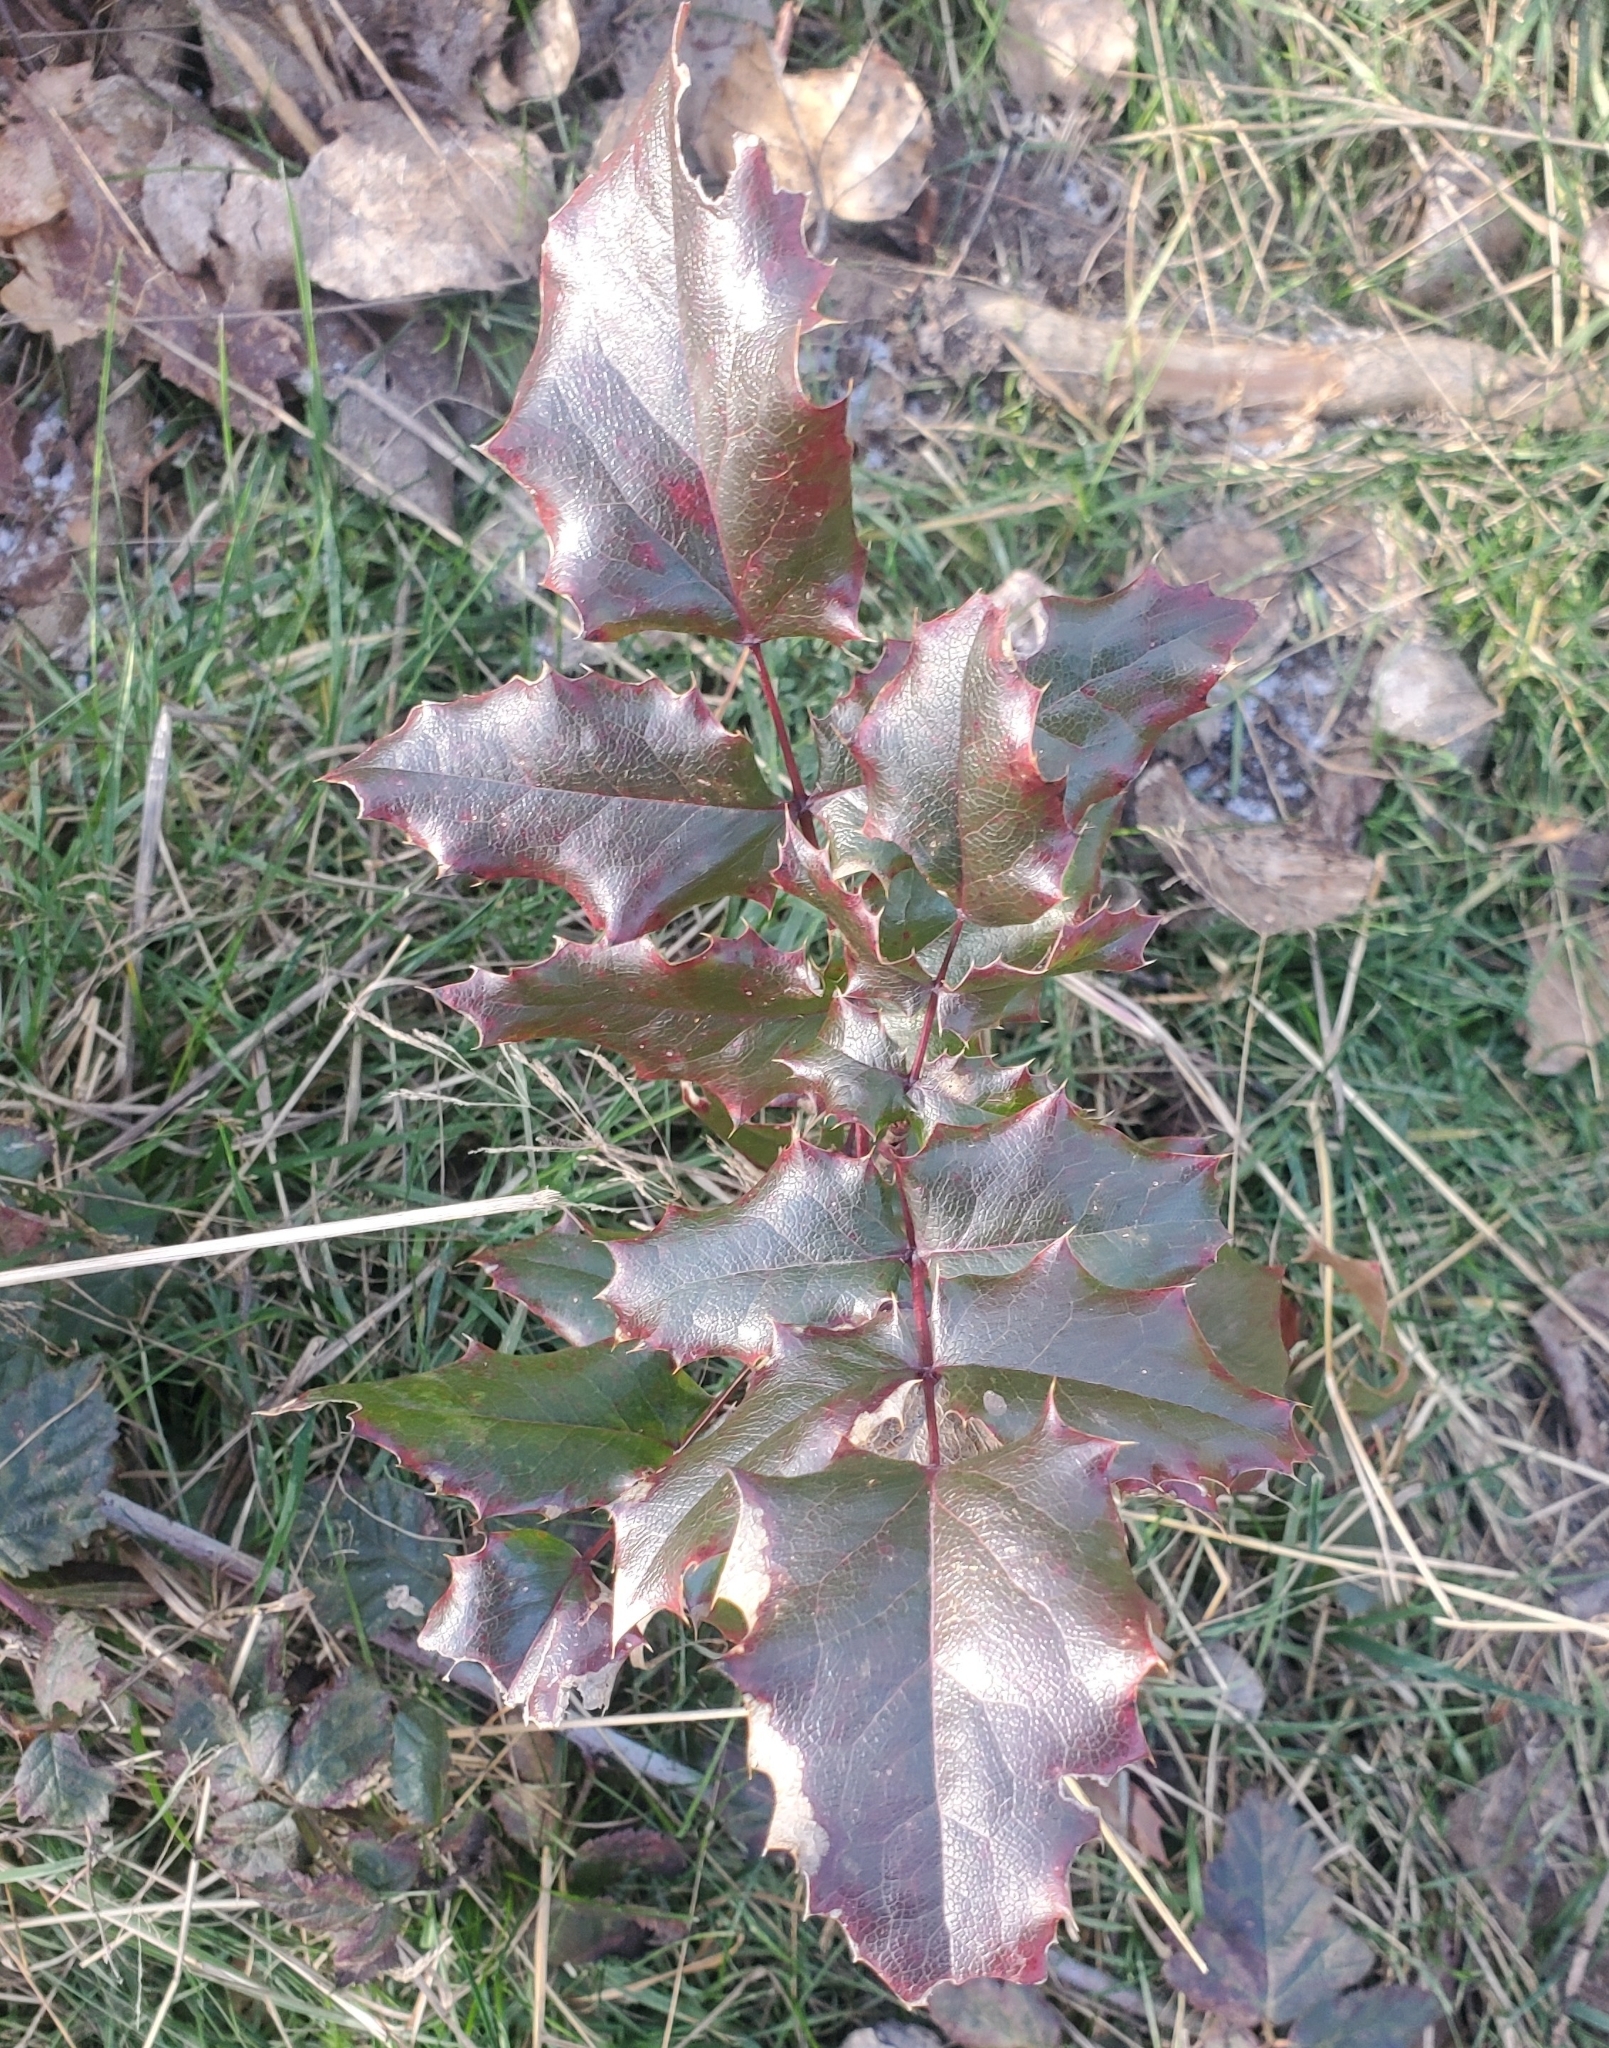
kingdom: Plantae
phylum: Tracheophyta
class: Magnoliopsida
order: Ranunculales
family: Berberidaceae
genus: Mahonia
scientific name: Mahonia aquifolium
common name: Oregon-grape
